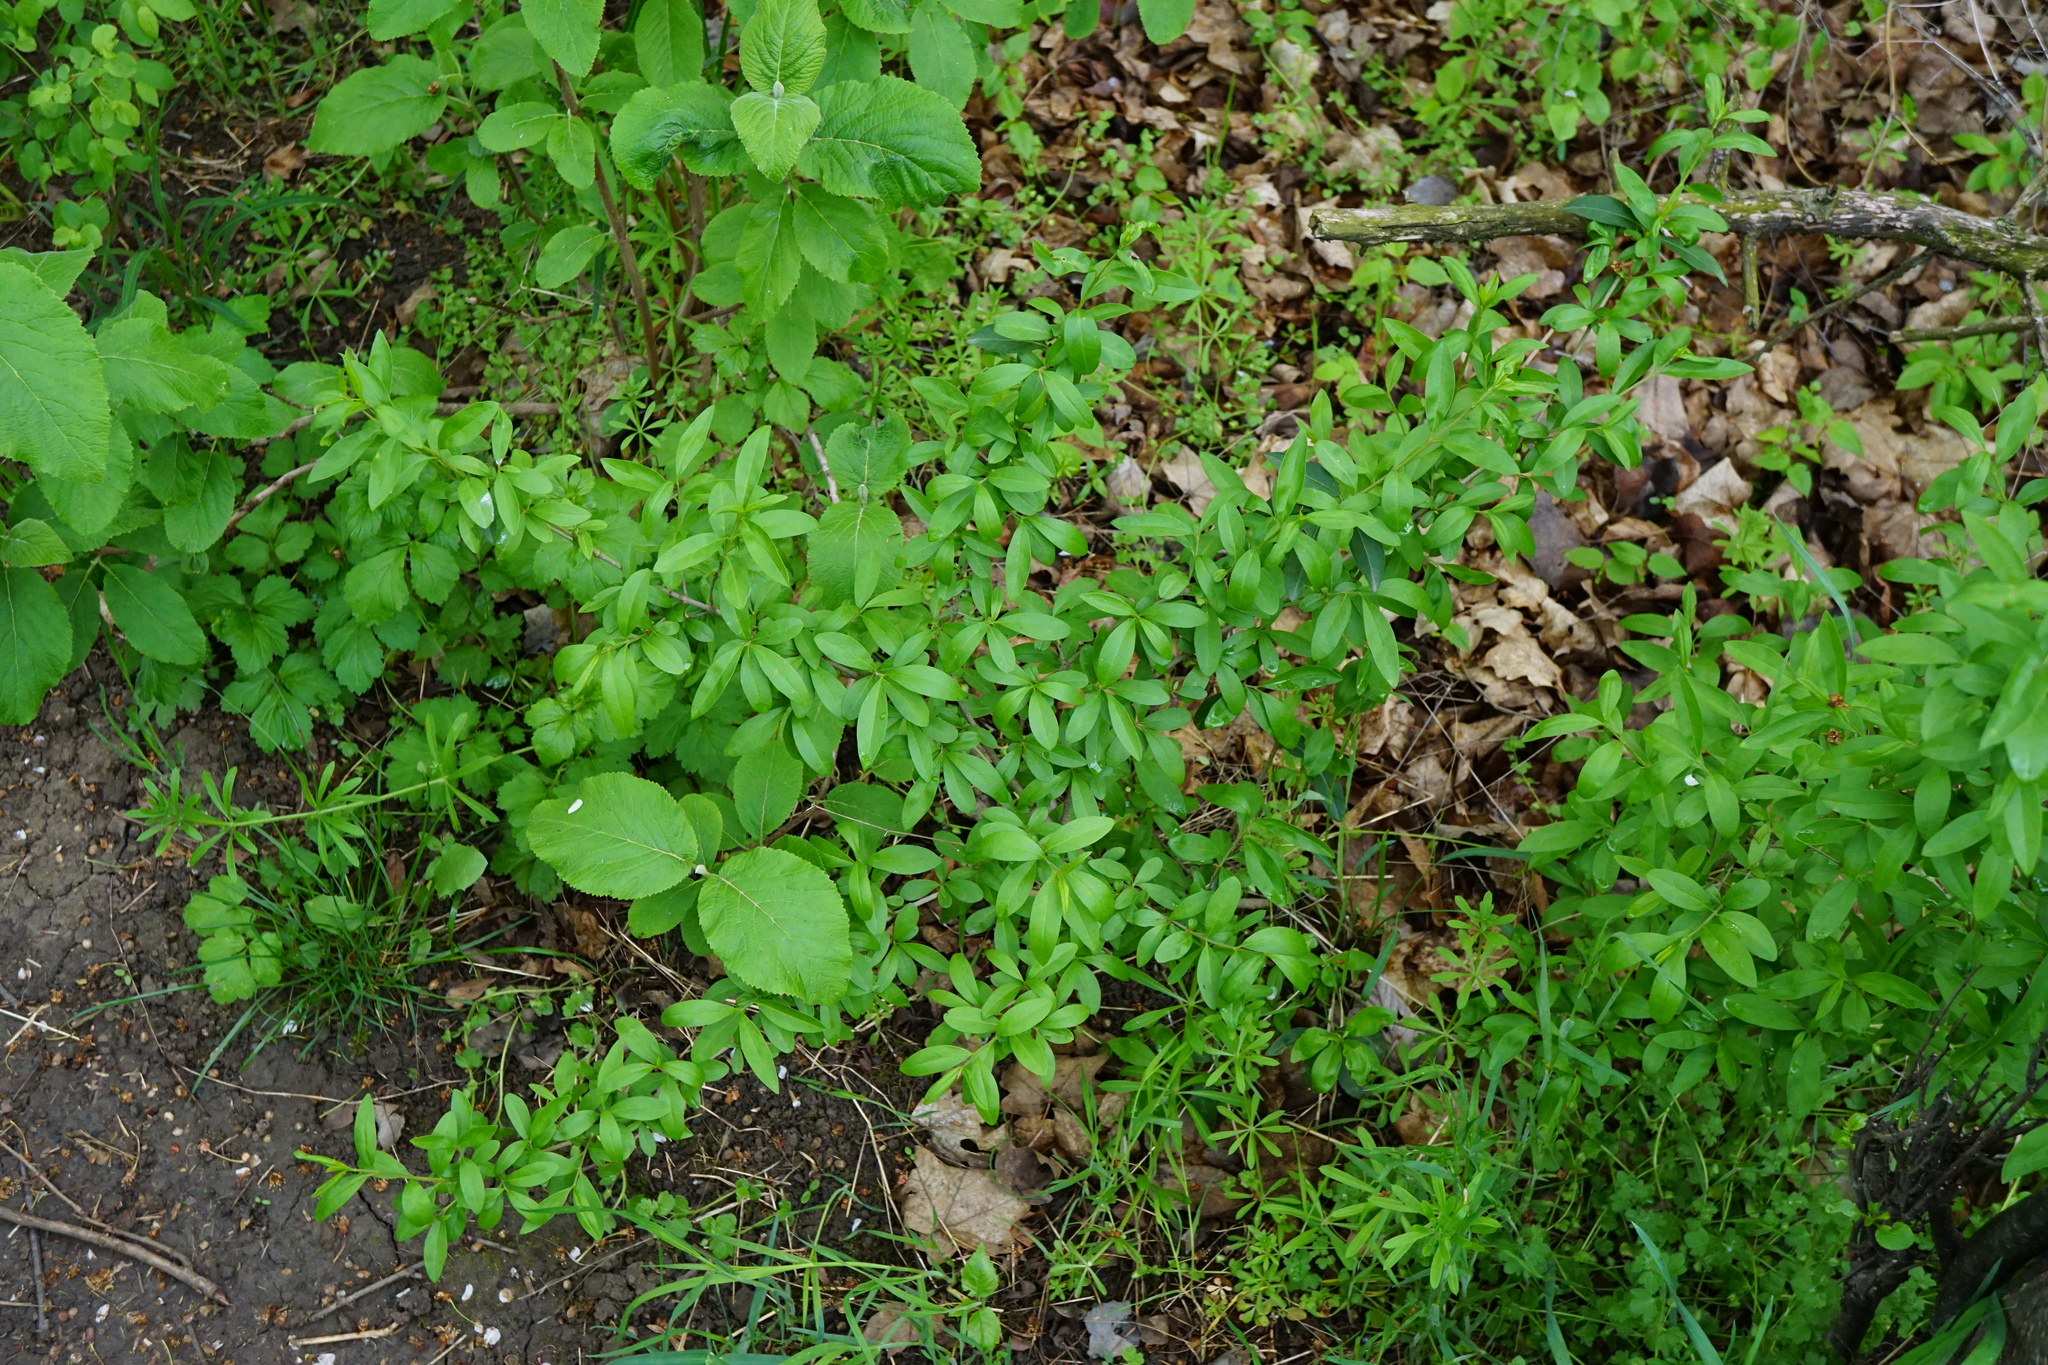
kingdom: Plantae
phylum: Tracheophyta
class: Magnoliopsida
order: Lamiales
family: Oleaceae
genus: Ligustrum
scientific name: Ligustrum vulgare
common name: Wild privet
